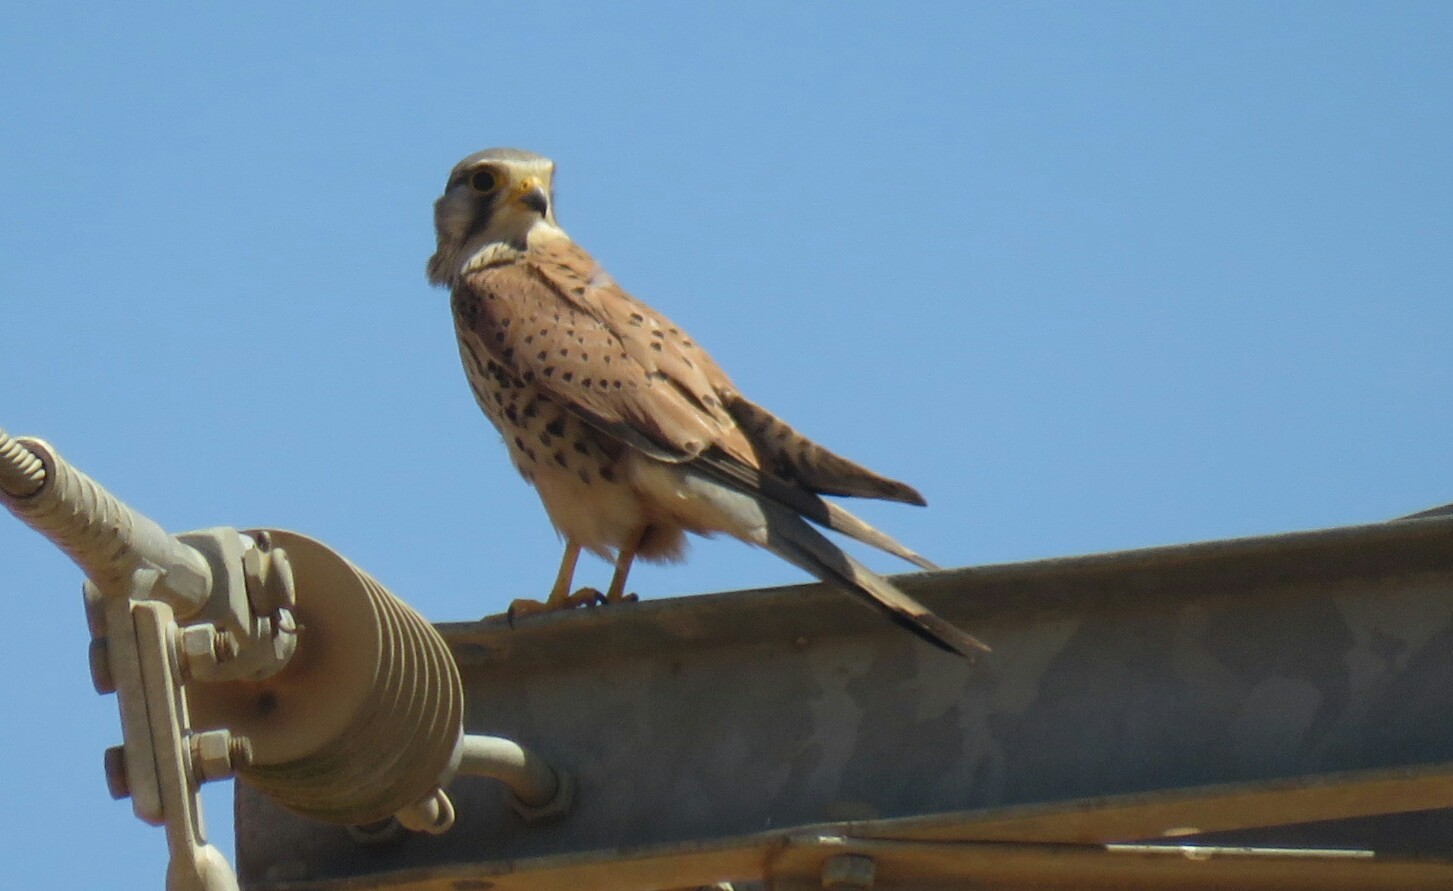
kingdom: Animalia
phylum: Chordata
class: Aves
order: Falconiformes
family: Falconidae
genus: Falco
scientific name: Falco tinnunculus
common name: Common kestrel
